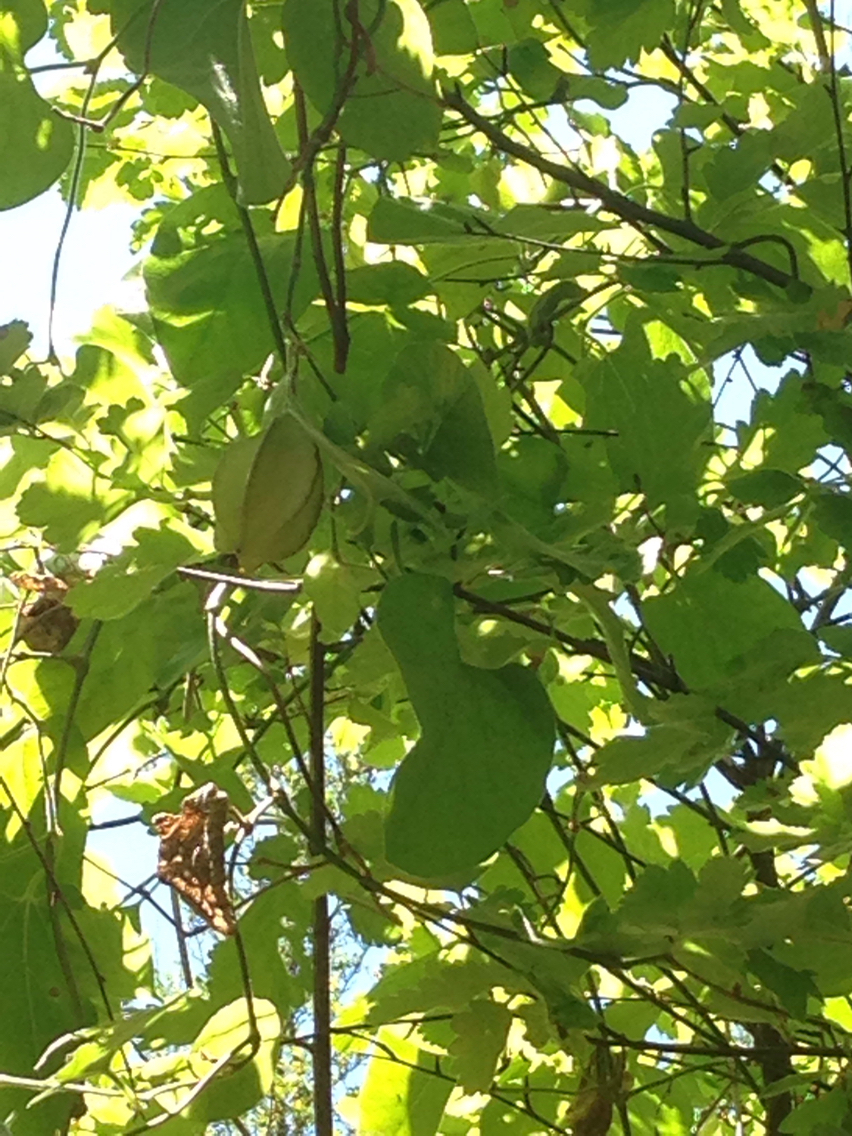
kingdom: Plantae
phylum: Tracheophyta
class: Magnoliopsida
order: Piperales
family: Aristolochiaceae
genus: Isotrema
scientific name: Isotrema californicum
